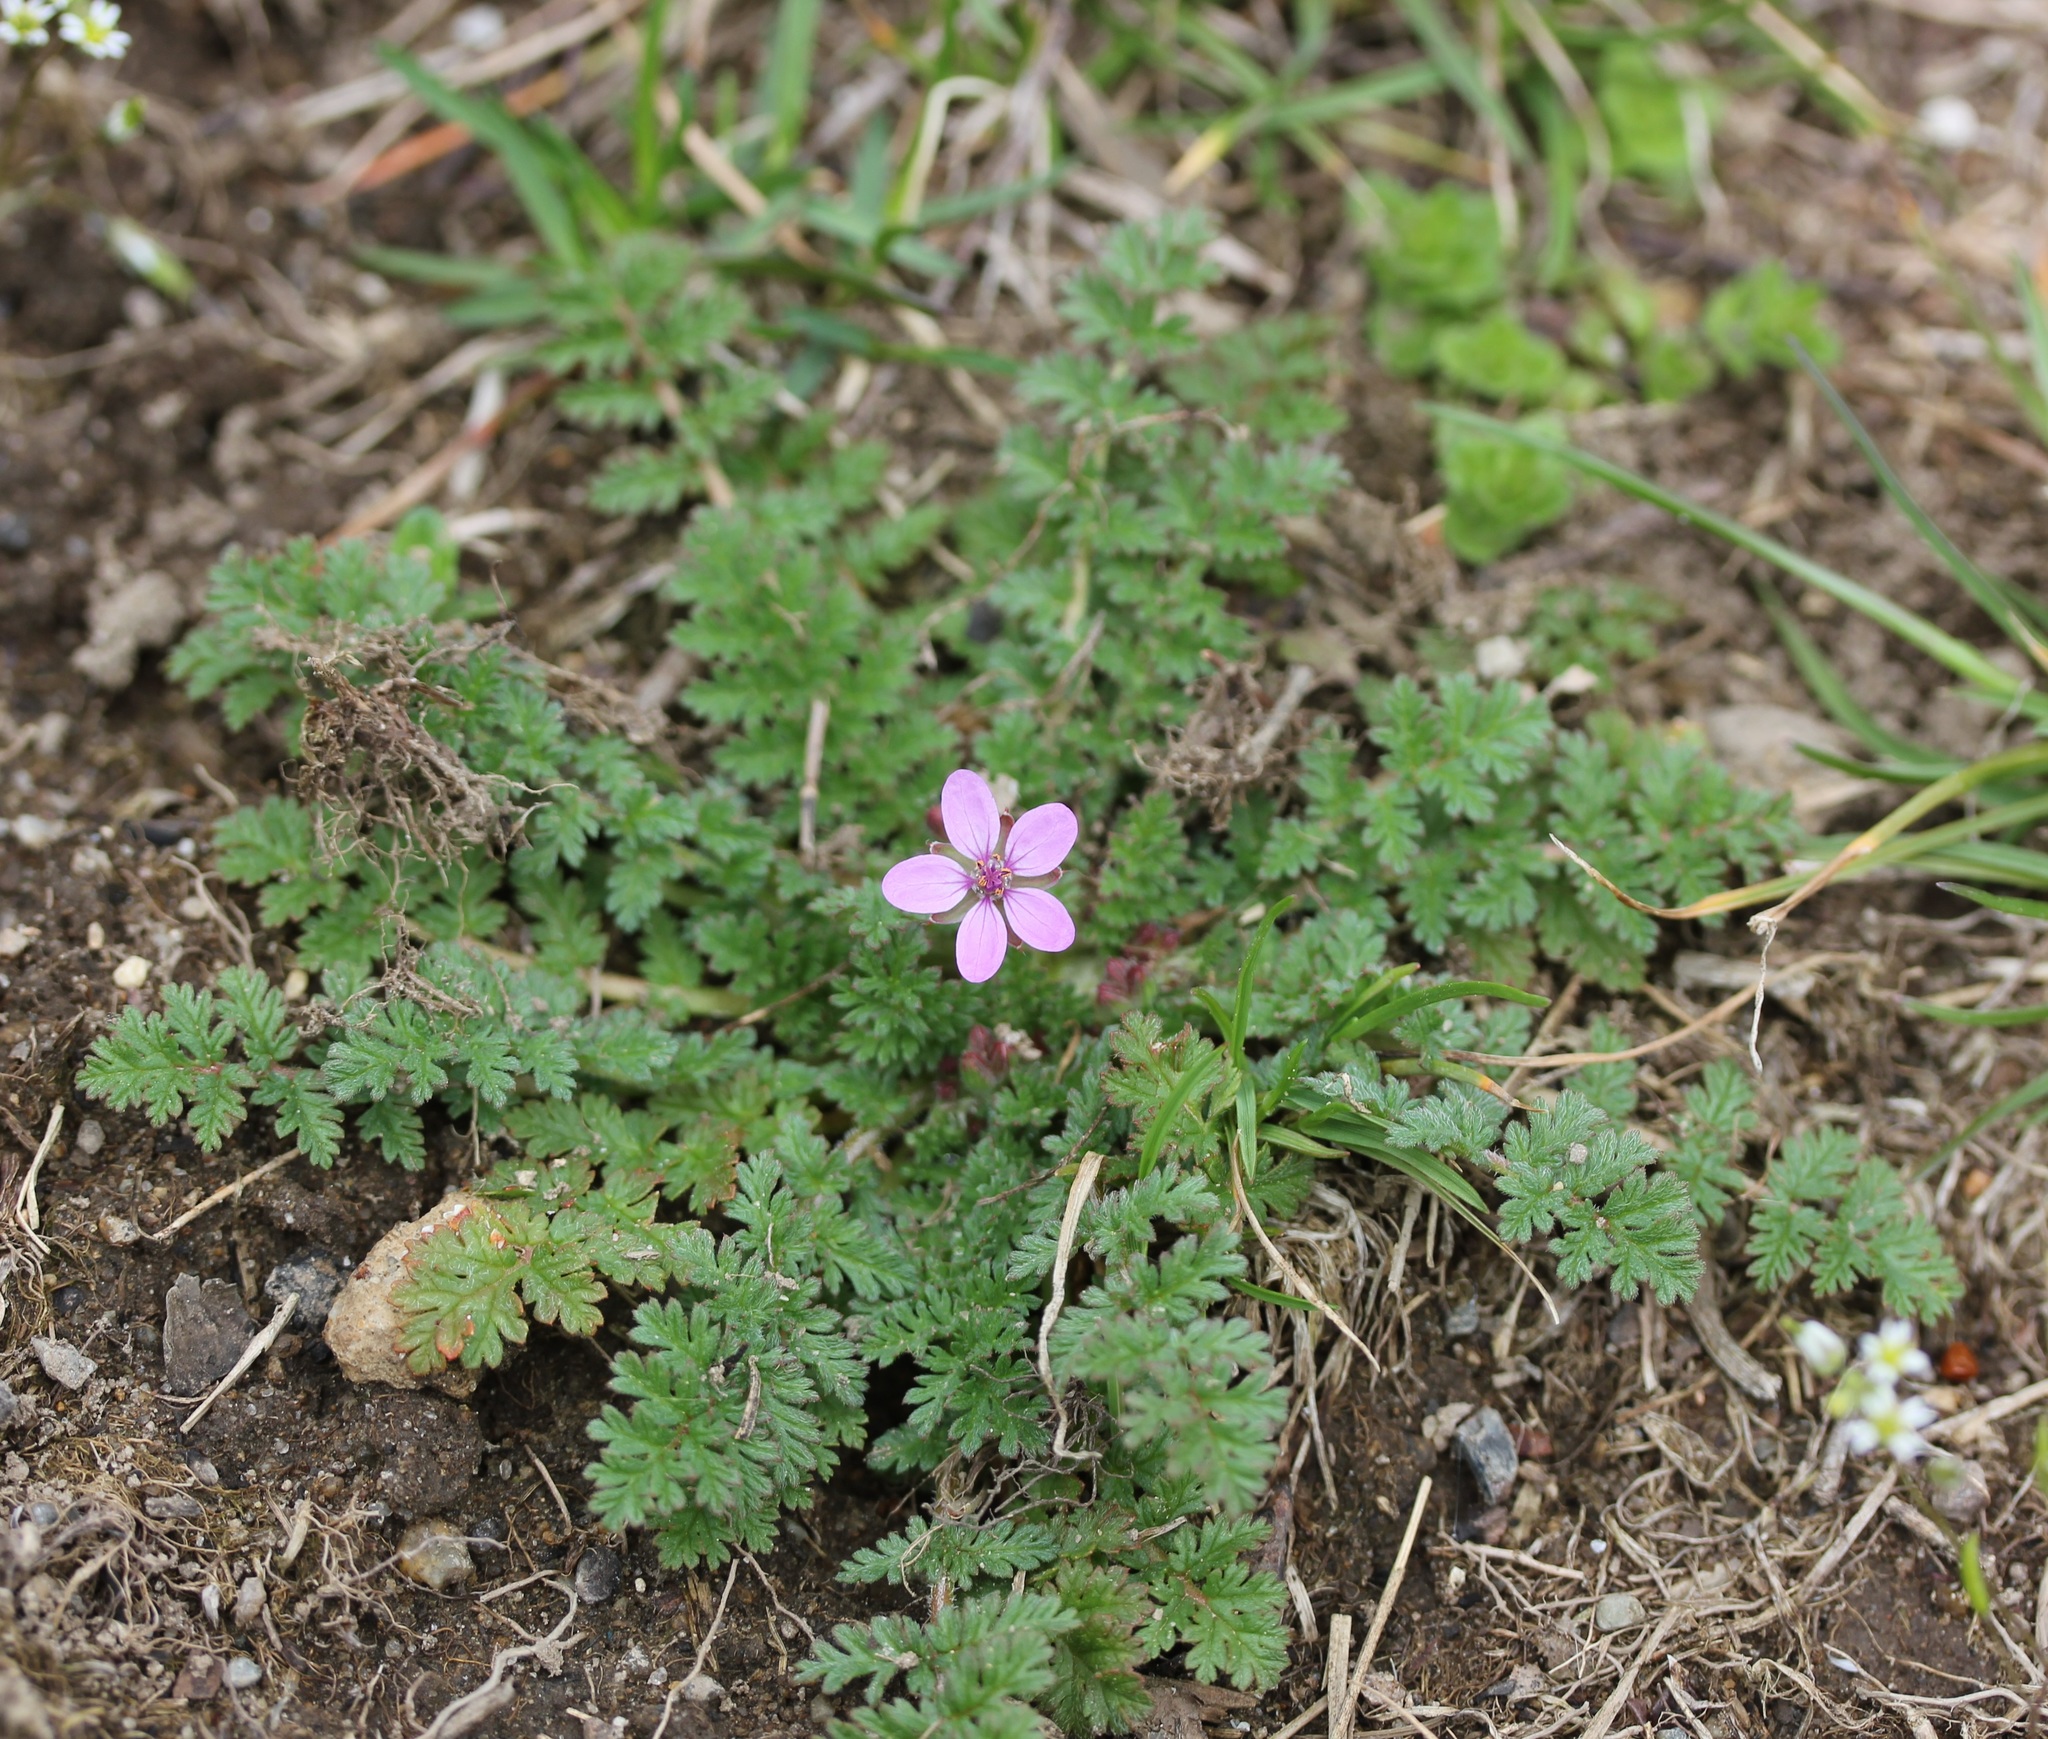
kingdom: Plantae
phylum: Tracheophyta
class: Magnoliopsida
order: Geraniales
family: Geraniaceae
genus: Erodium
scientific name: Erodium cicutarium
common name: Common stork's-bill
